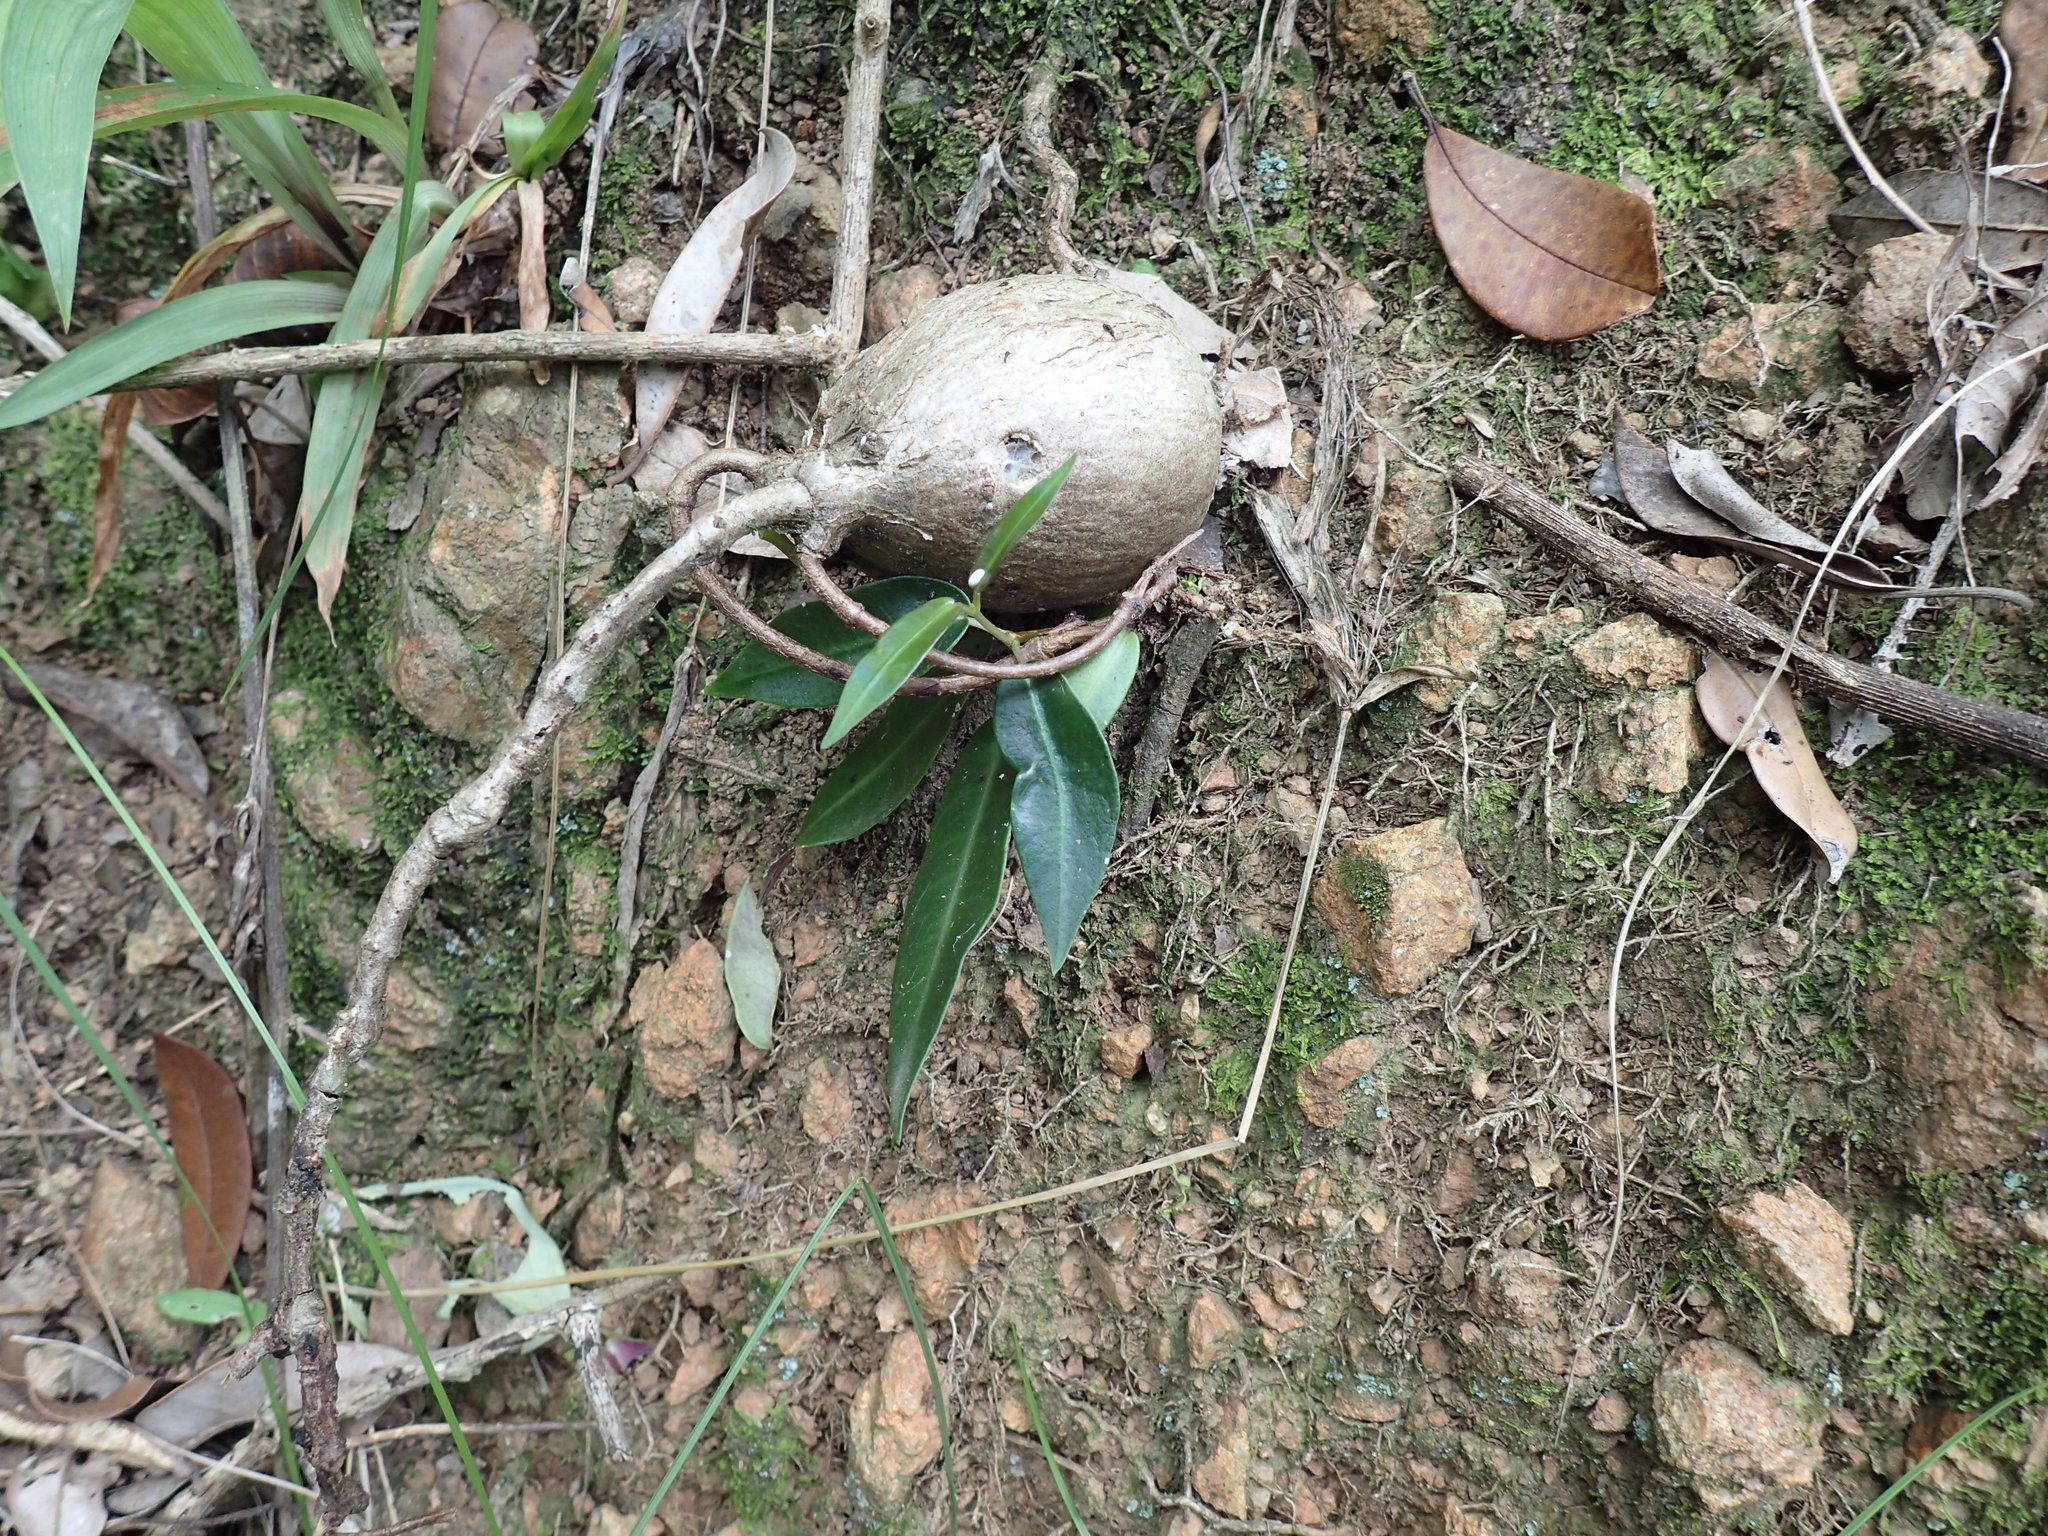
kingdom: Plantae
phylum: Tracheophyta
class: Magnoliopsida
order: Gentianales
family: Apocynaceae
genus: Petopentia
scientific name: Petopentia natalensis
